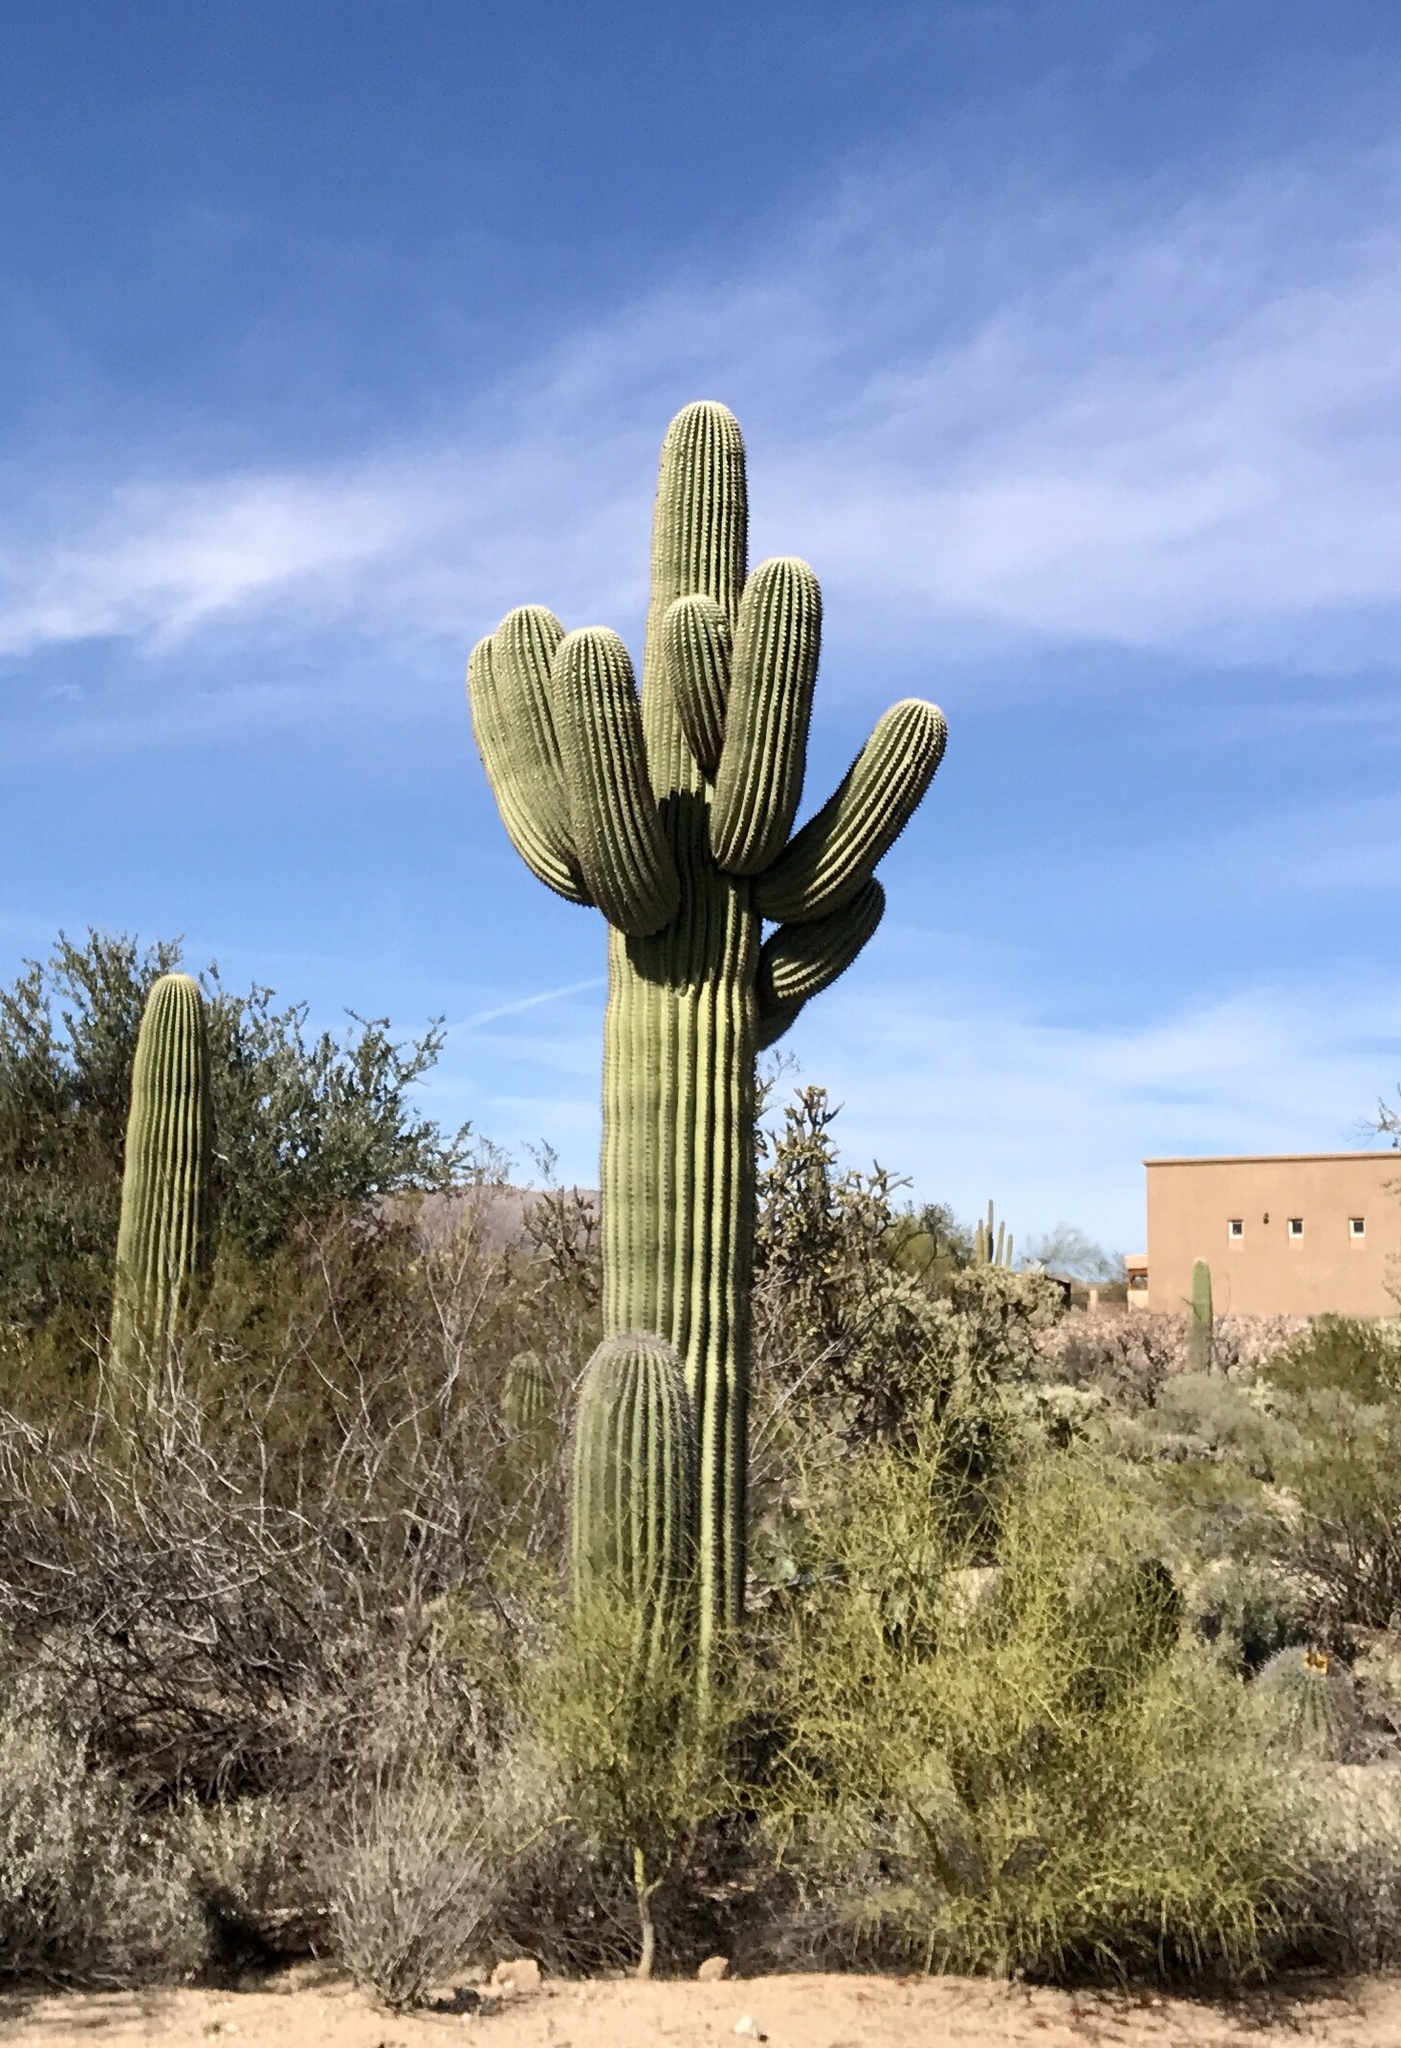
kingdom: Plantae
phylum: Tracheophyta
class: Magnoliopsida
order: Caryophyllales
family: Cactaceae
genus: Carnegiea
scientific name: Carnegiea gigantea
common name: Saguaro
